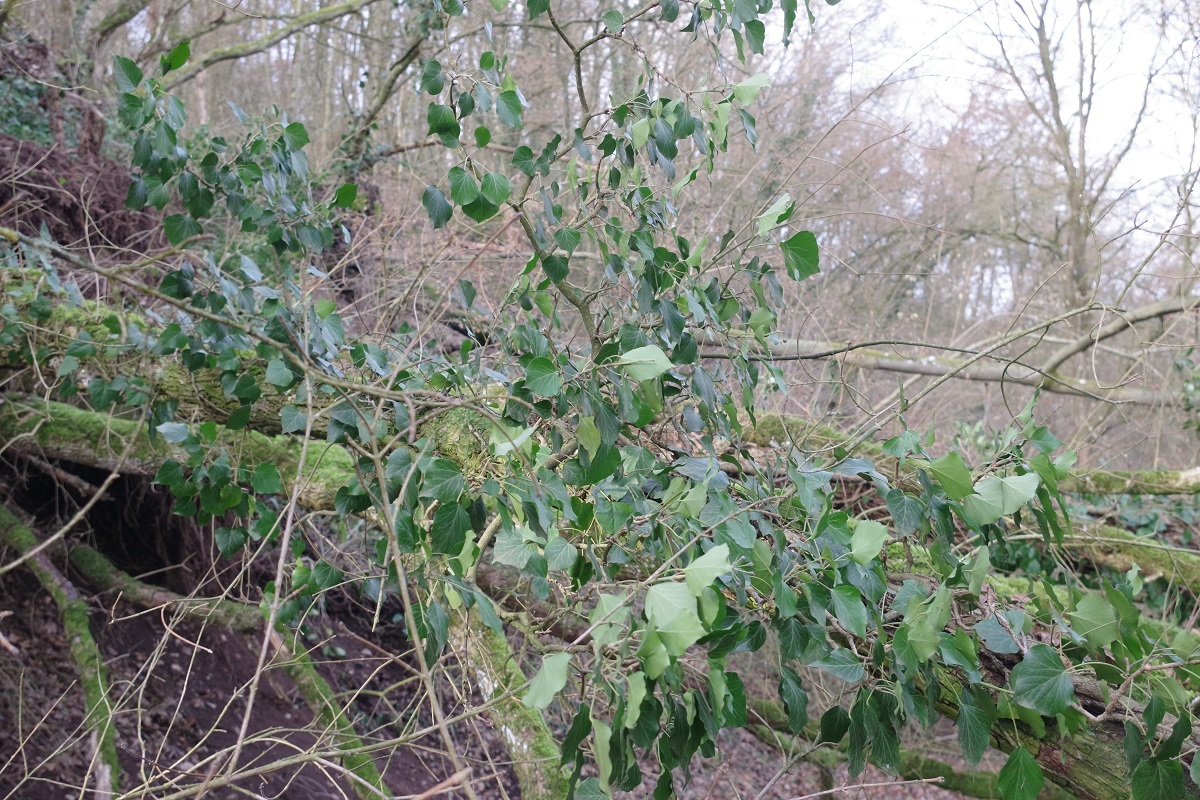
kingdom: Plantae
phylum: Tracheophyta
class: Magnoliopsida
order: Apiales
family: Araliaceae
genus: Hedera
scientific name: Hedera helix
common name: Ivy
